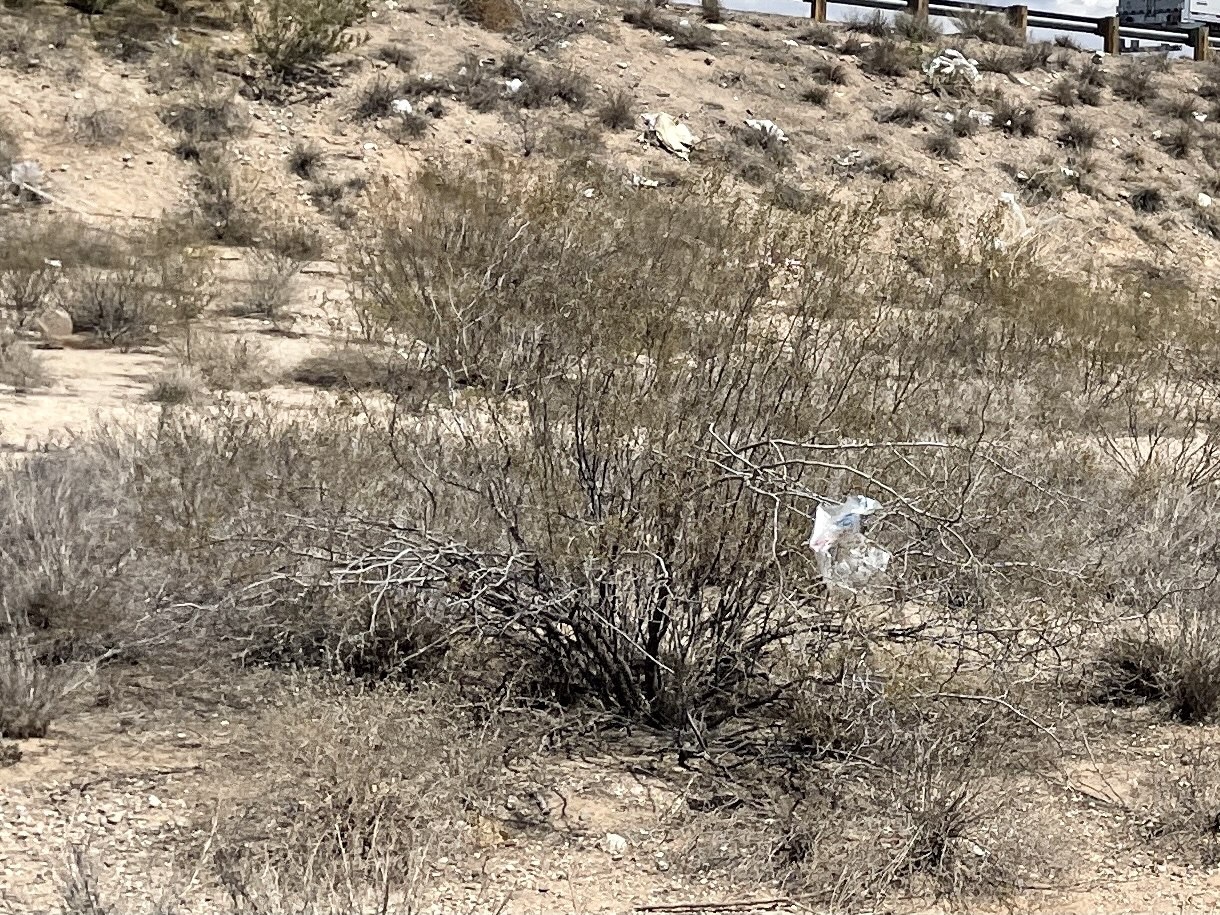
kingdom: Plantae
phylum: Tracheophyta
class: Magnoliopsida
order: Zygophyllales
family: Zygophyllaceae
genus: Larrea
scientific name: Larrea tridentata
